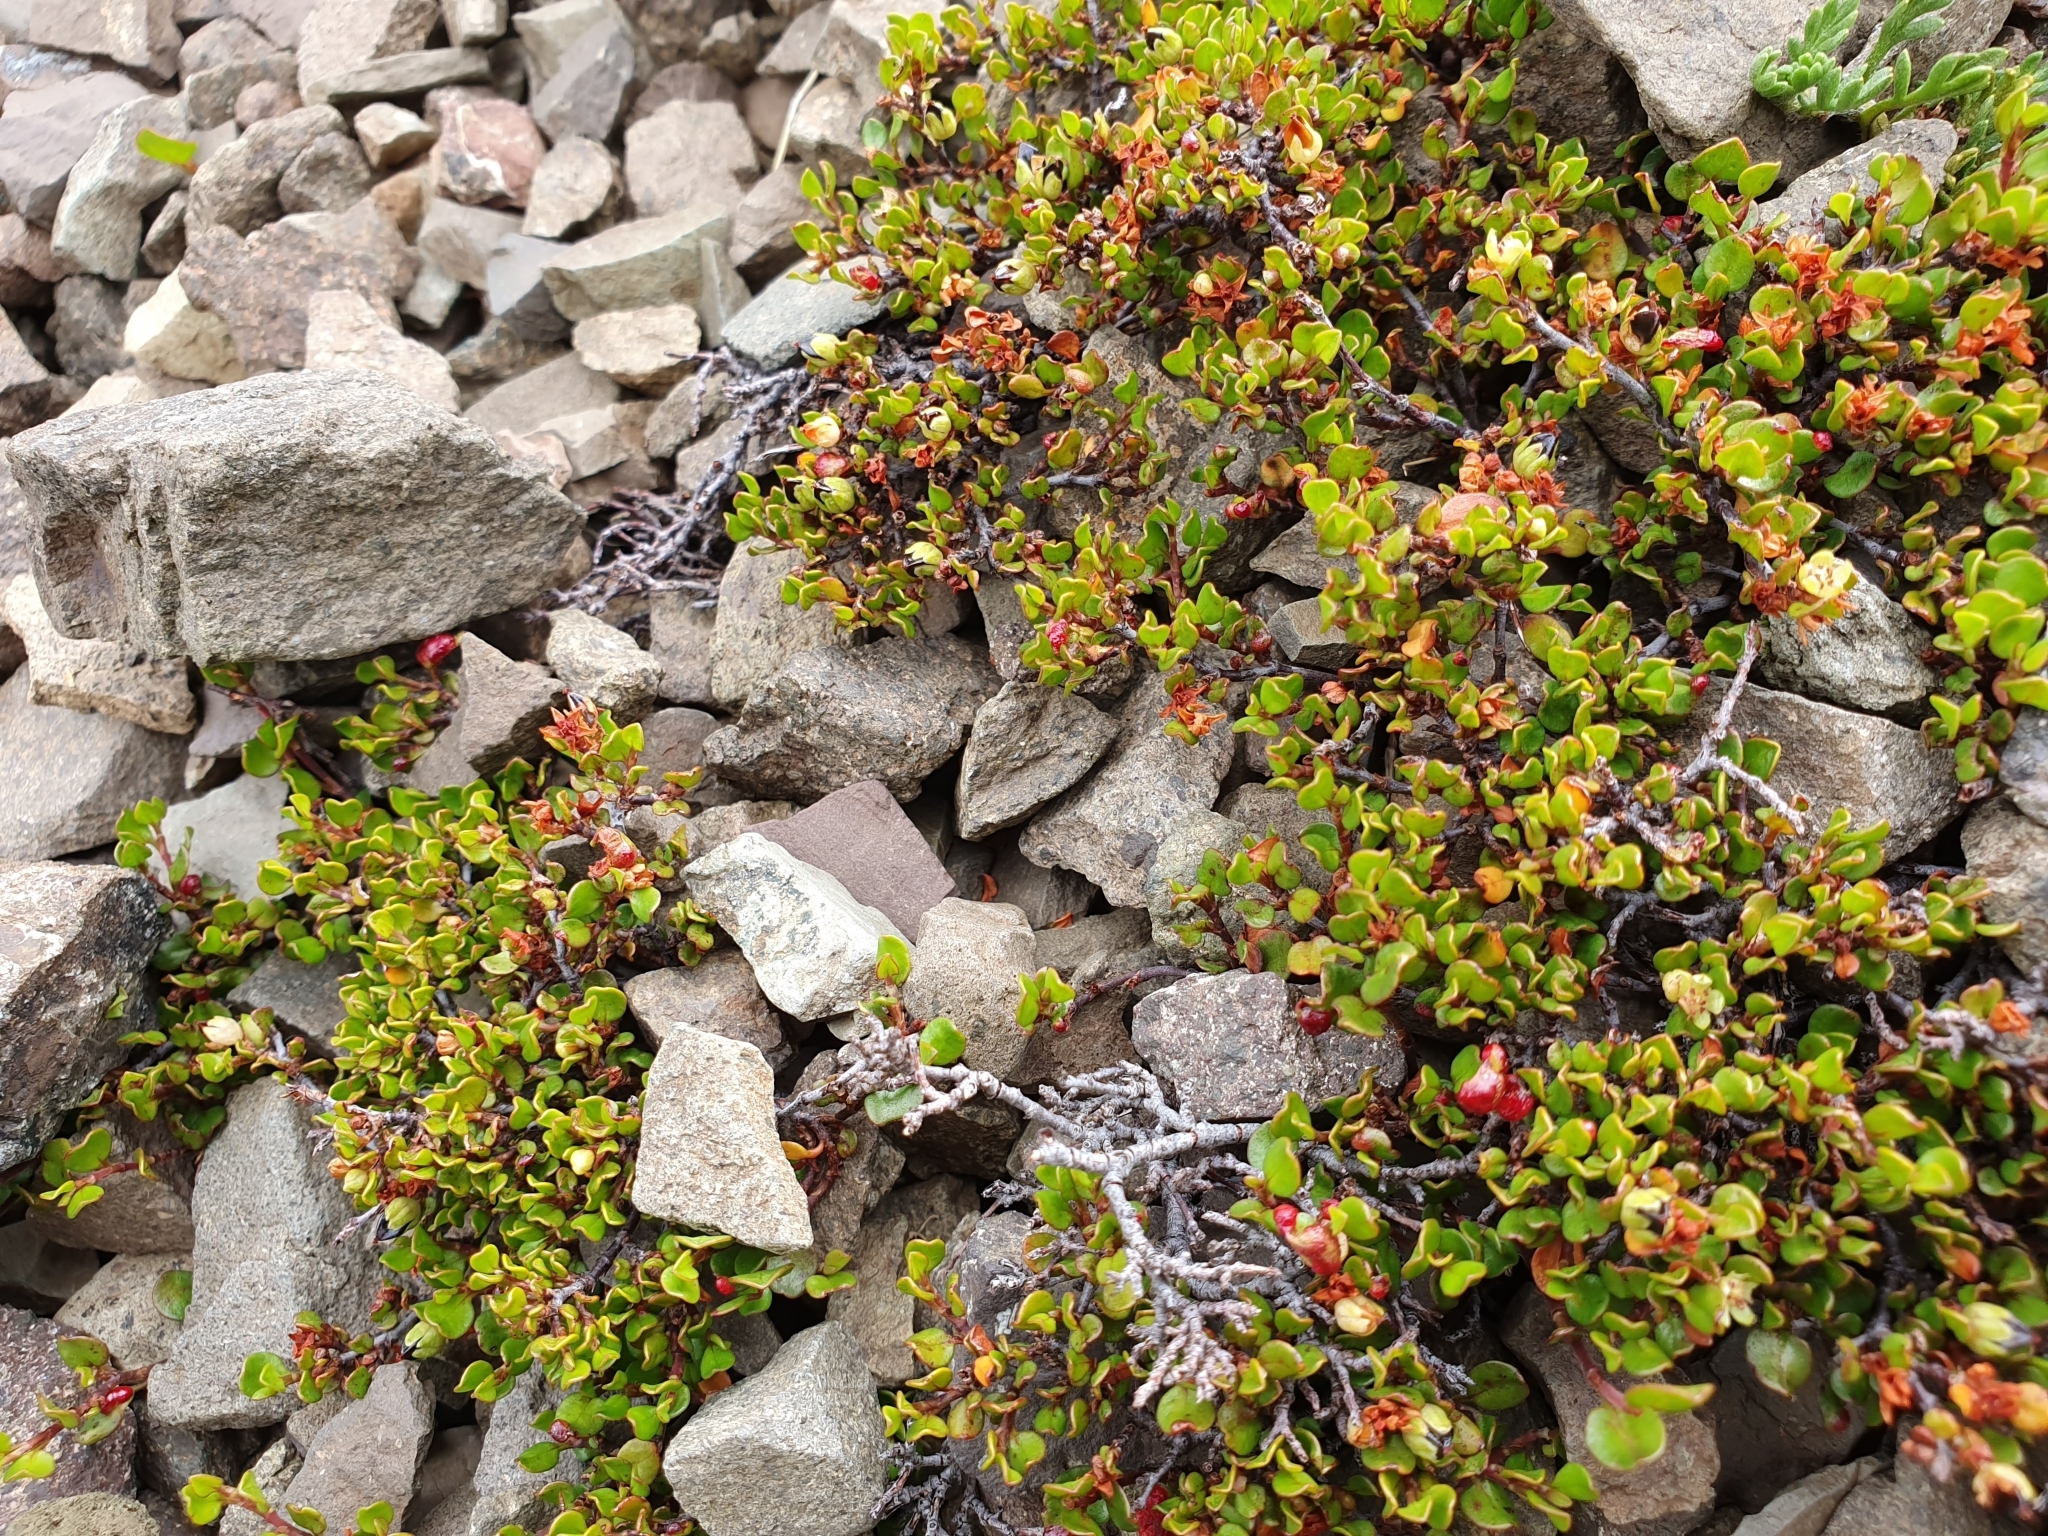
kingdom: Plantae
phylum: Tracheophyta
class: Magnoliopsida
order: Caryophyllales
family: Polygonaceae
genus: Muehlenbeckia
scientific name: Muehlenbeckia axillaris
